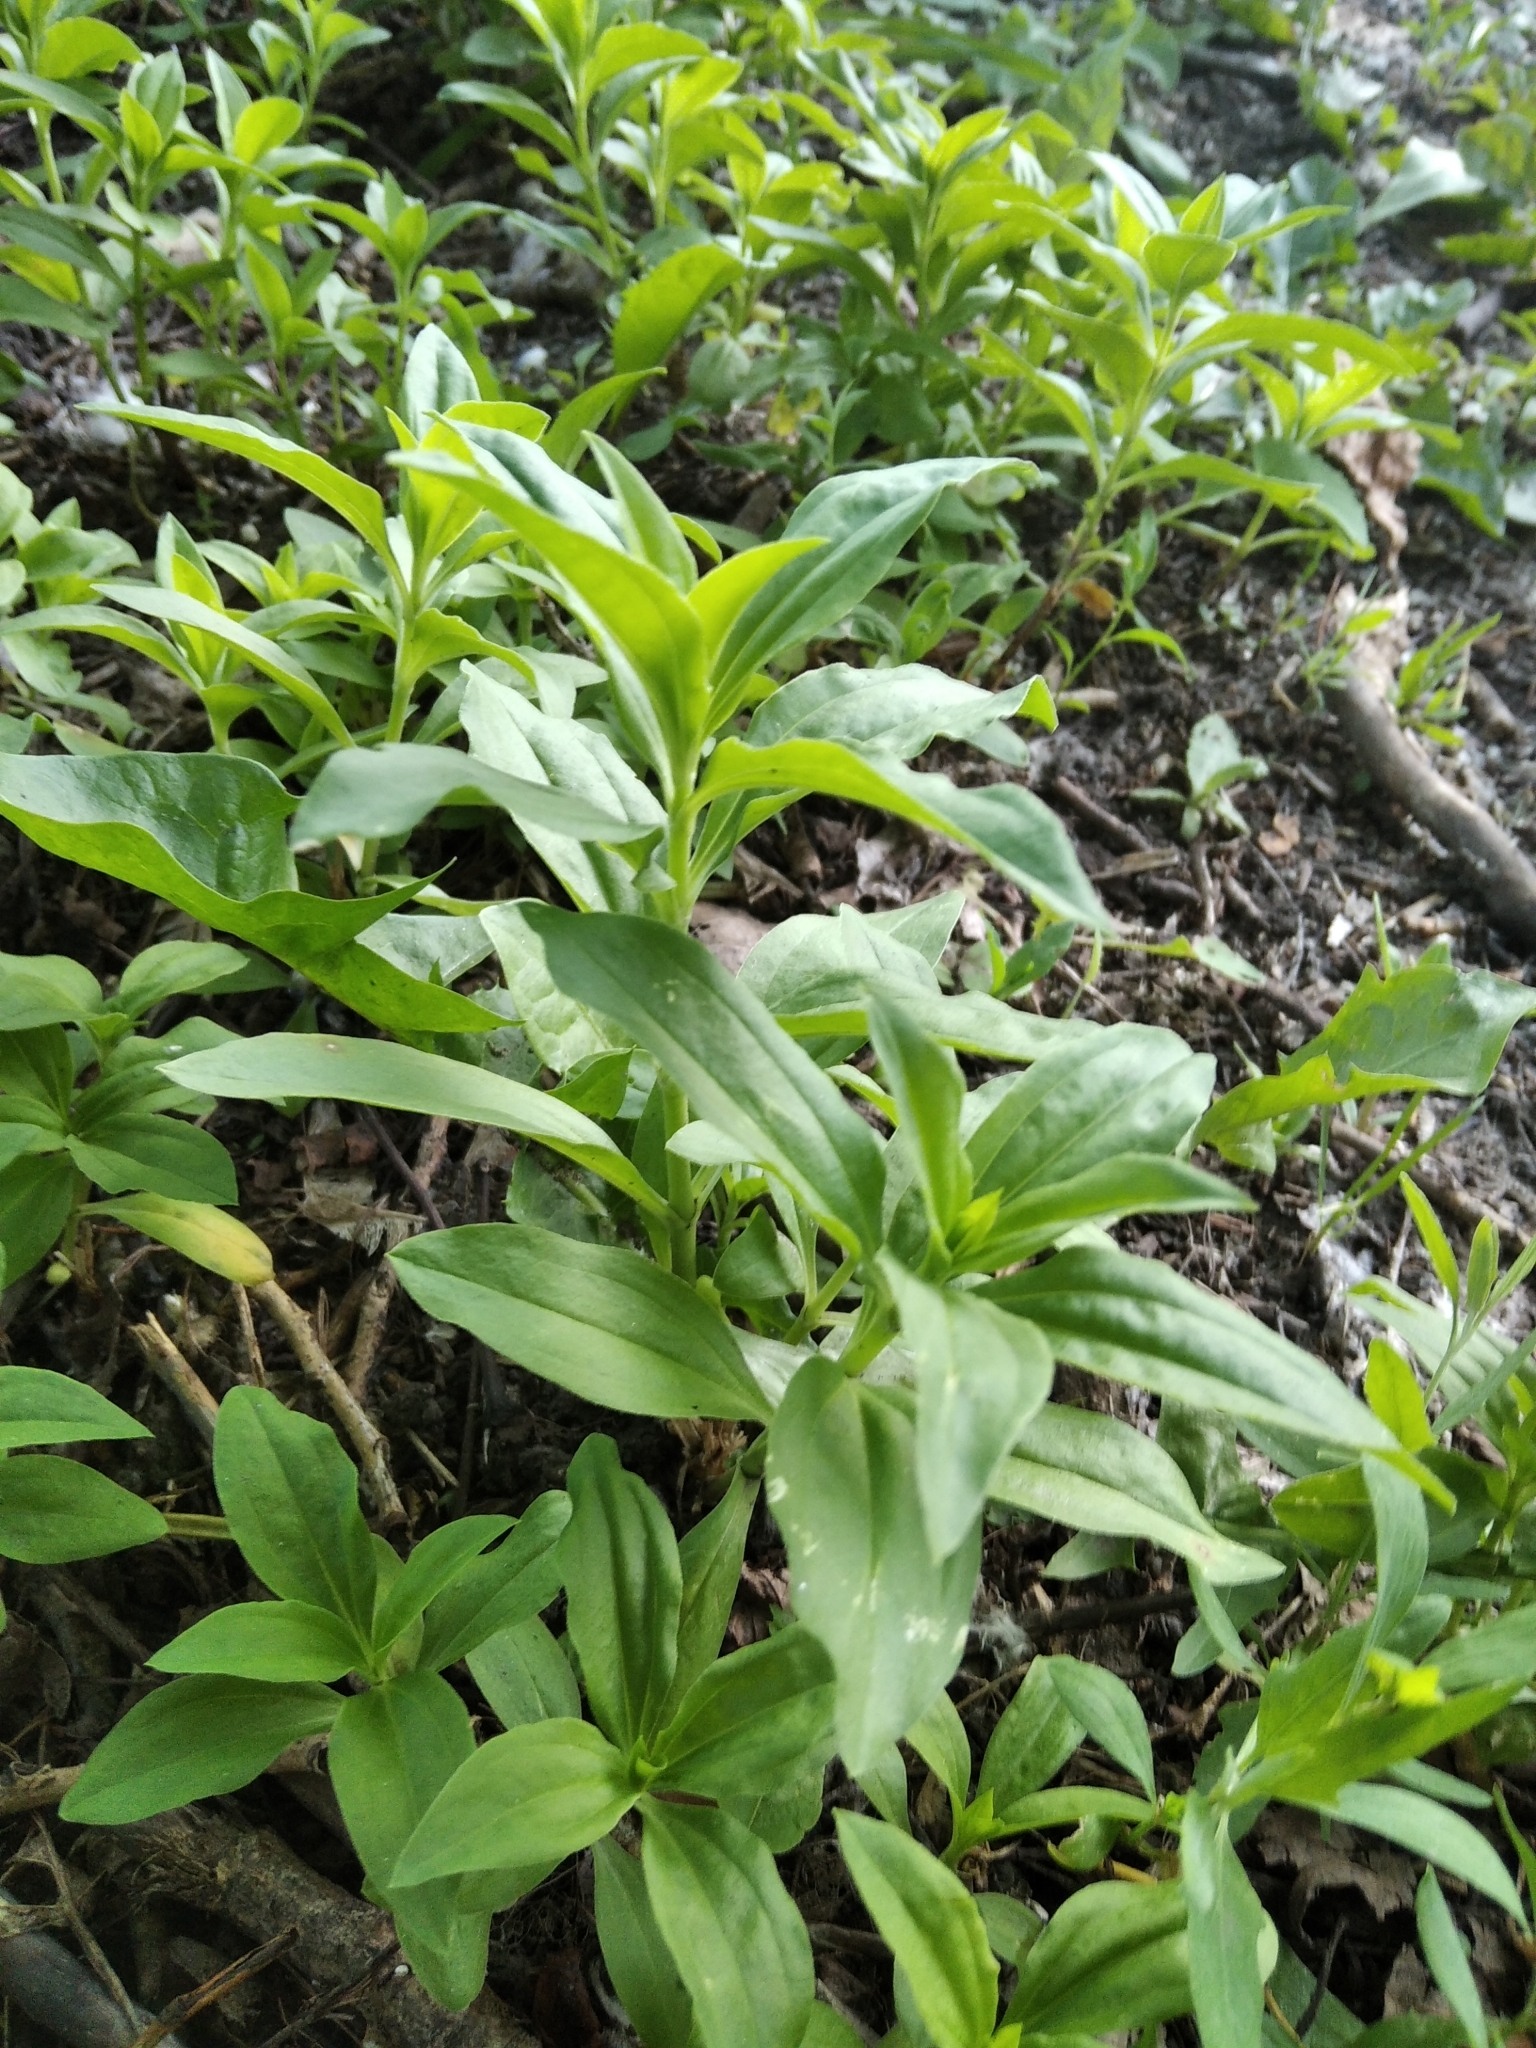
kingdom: Plantae
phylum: Tracheophyta
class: Magnoliopsida
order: Caryophyllales
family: Caryophyllaceae
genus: Saponaria
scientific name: Saponaria officinalis
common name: Soapwort
